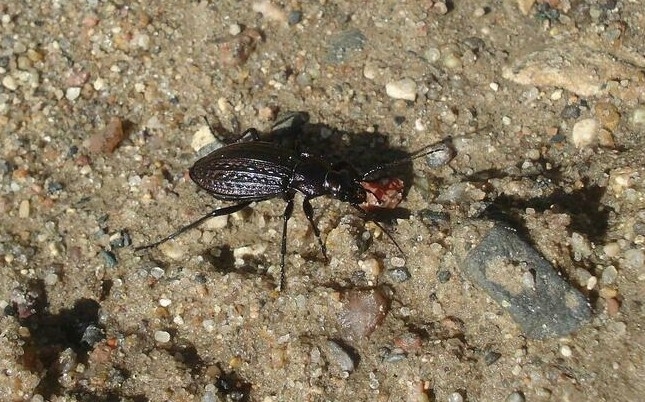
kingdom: Animalia
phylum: Arthropoda
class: Insecta
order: Coleoptera
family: Carabidae
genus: Carabus
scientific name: Carabus granulatus
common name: Granulate ground beetle
